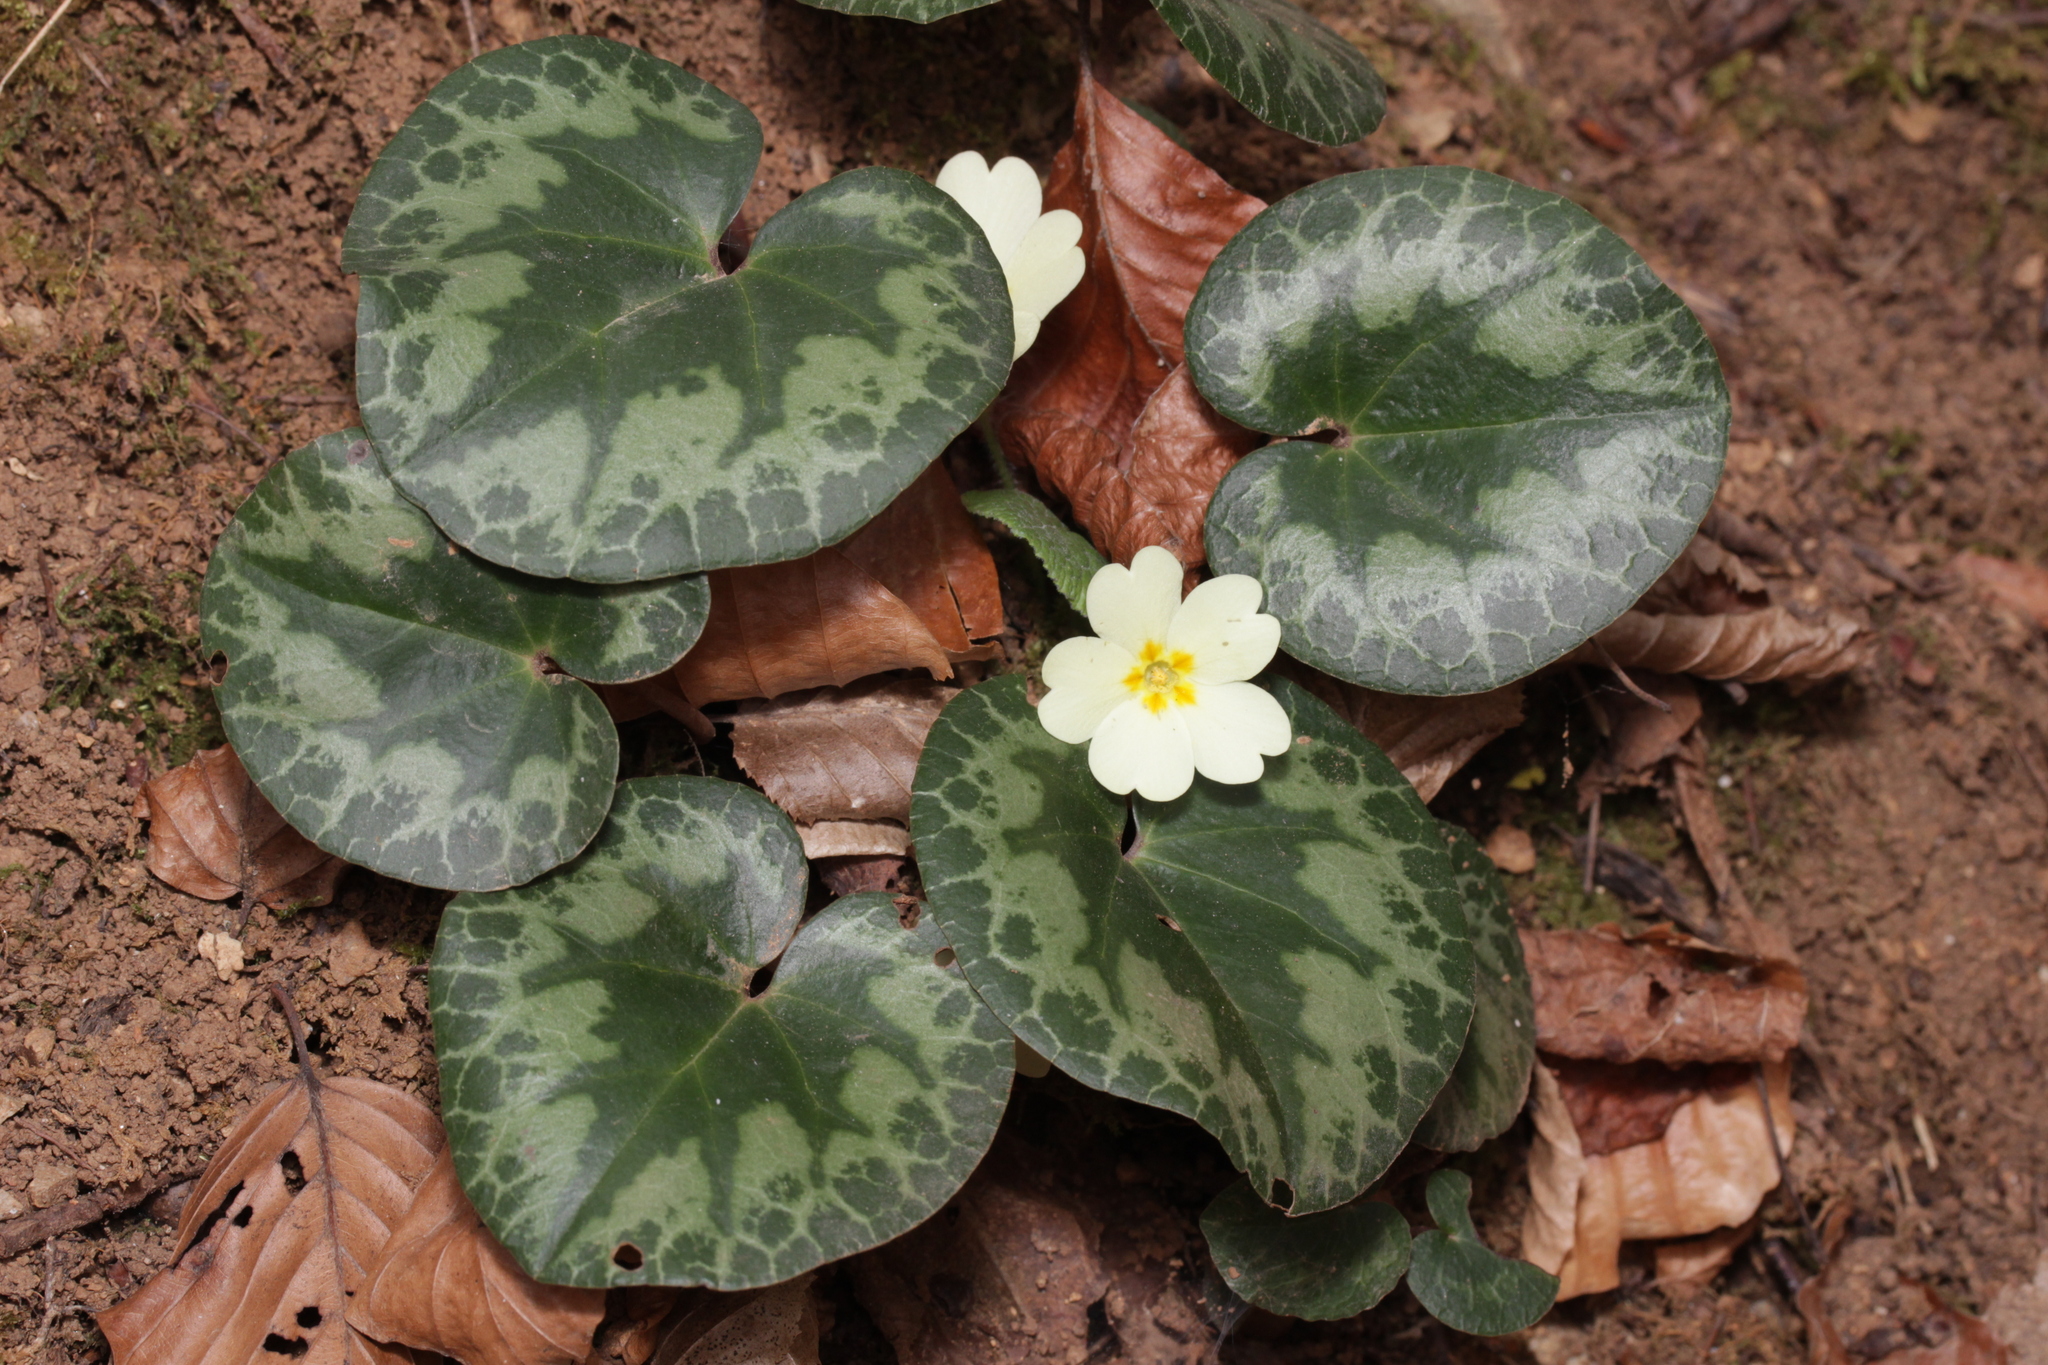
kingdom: Plantae
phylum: Tracheophyta
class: Magnoliopsida
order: Ericales
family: Primulaceae
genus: Primula
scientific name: Primula vulgaris
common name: Primrose
